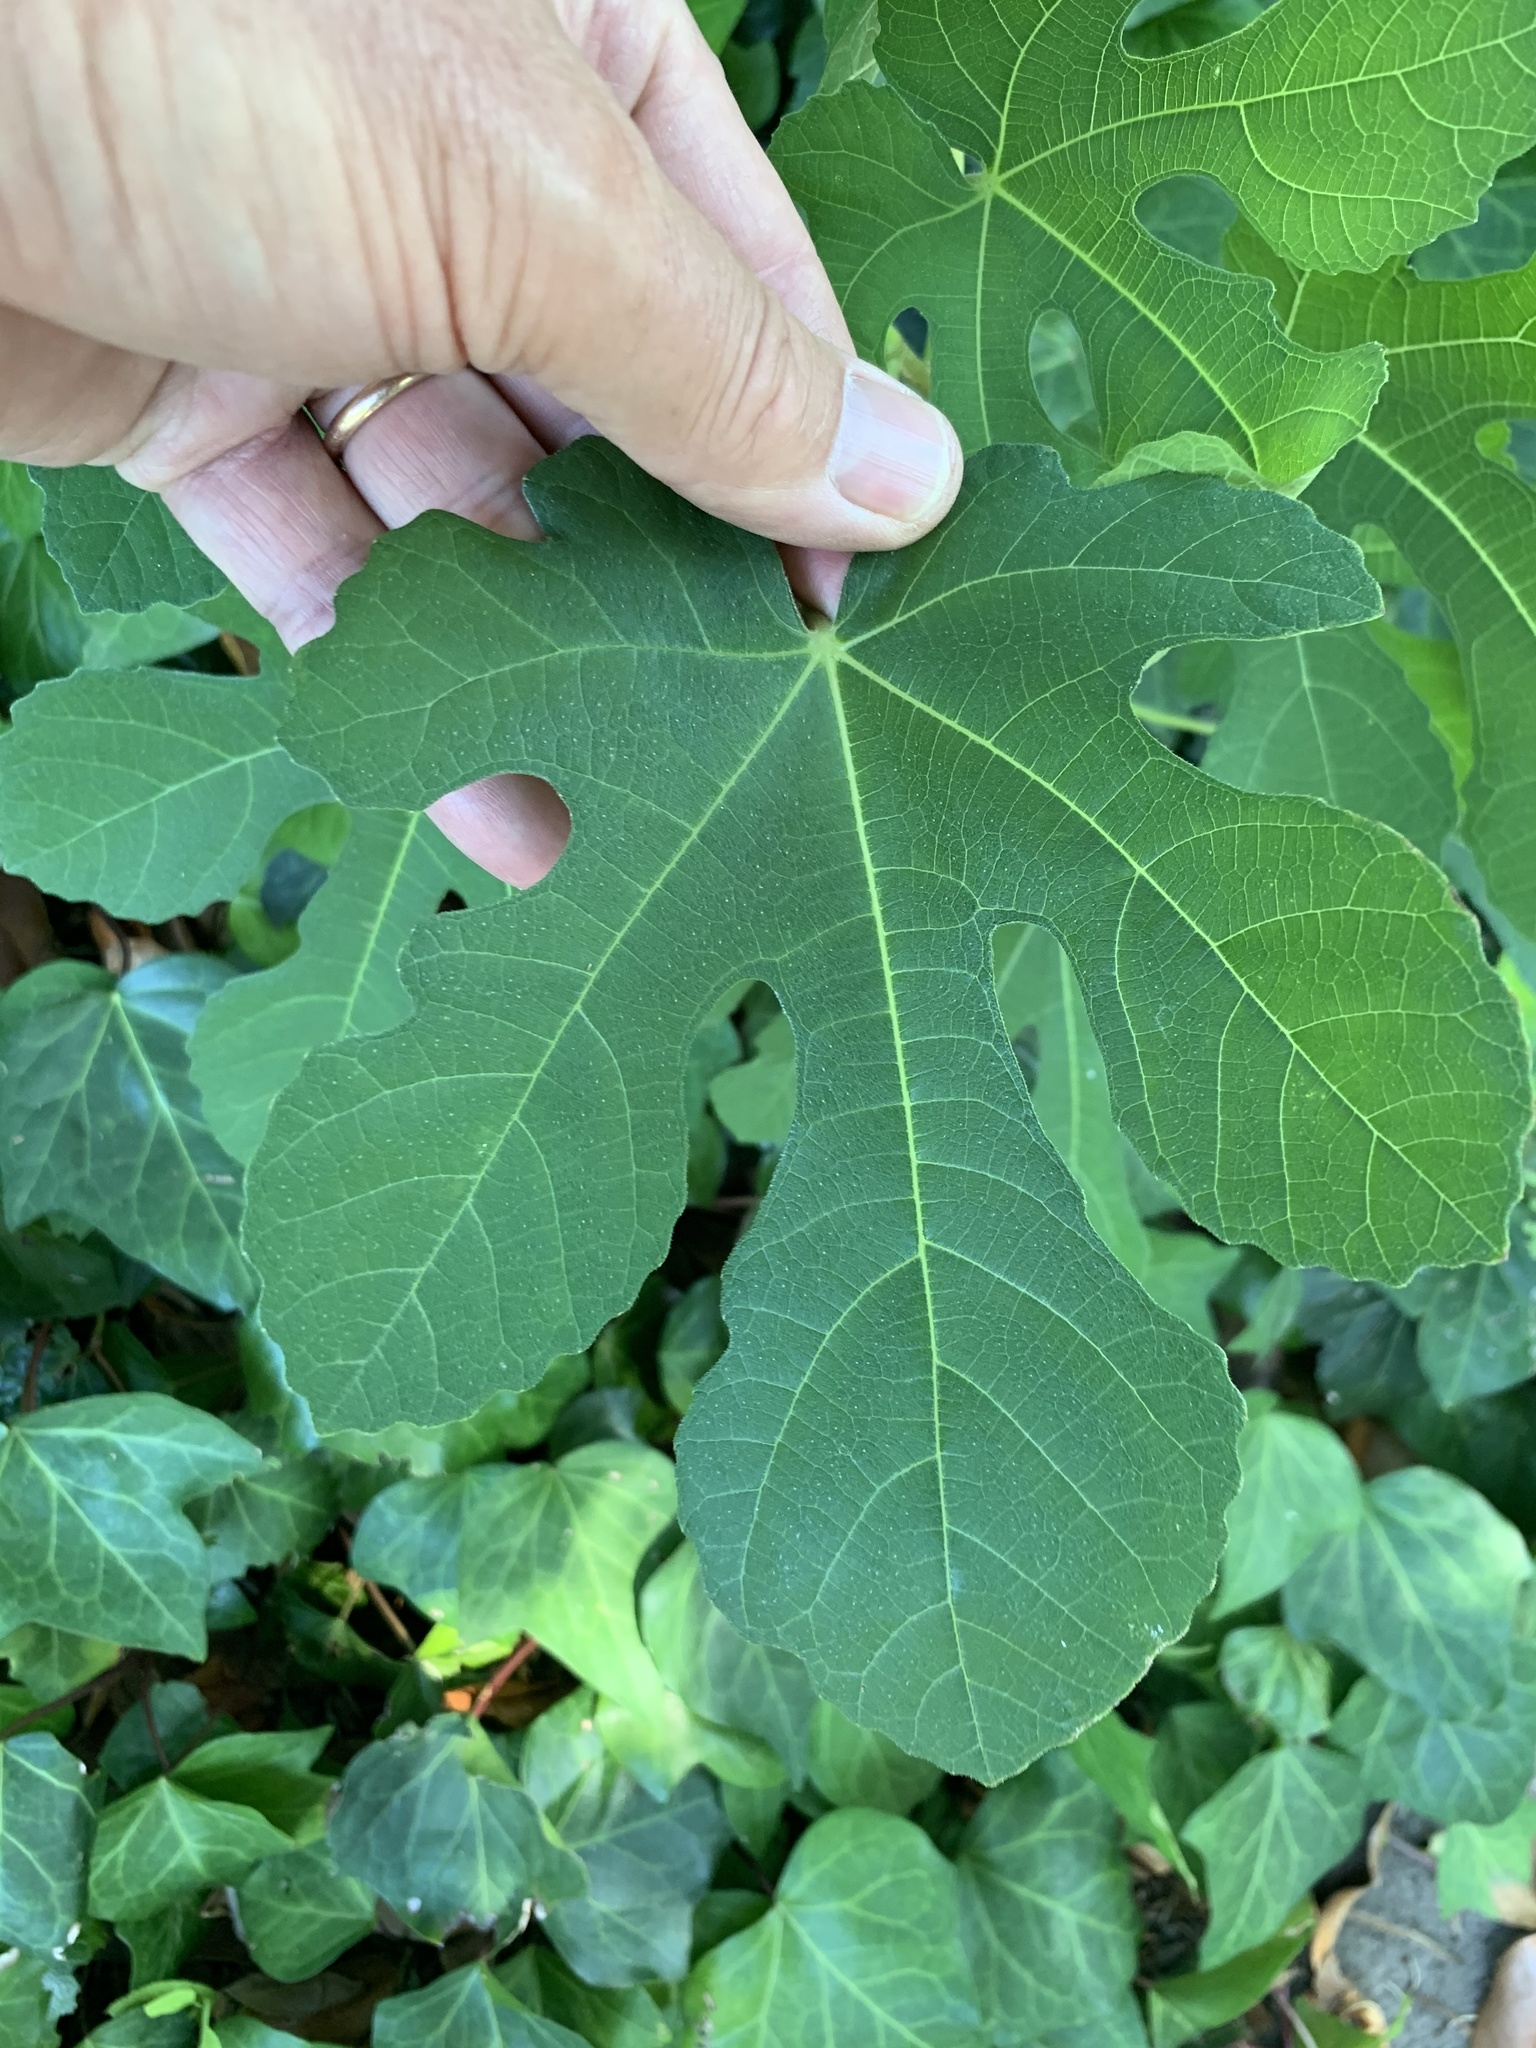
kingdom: Plantae
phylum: Tracheophyta
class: Magnoliopsida
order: Rosales
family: Moraceae
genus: Ficus
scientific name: Ficus carica
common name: Fig
